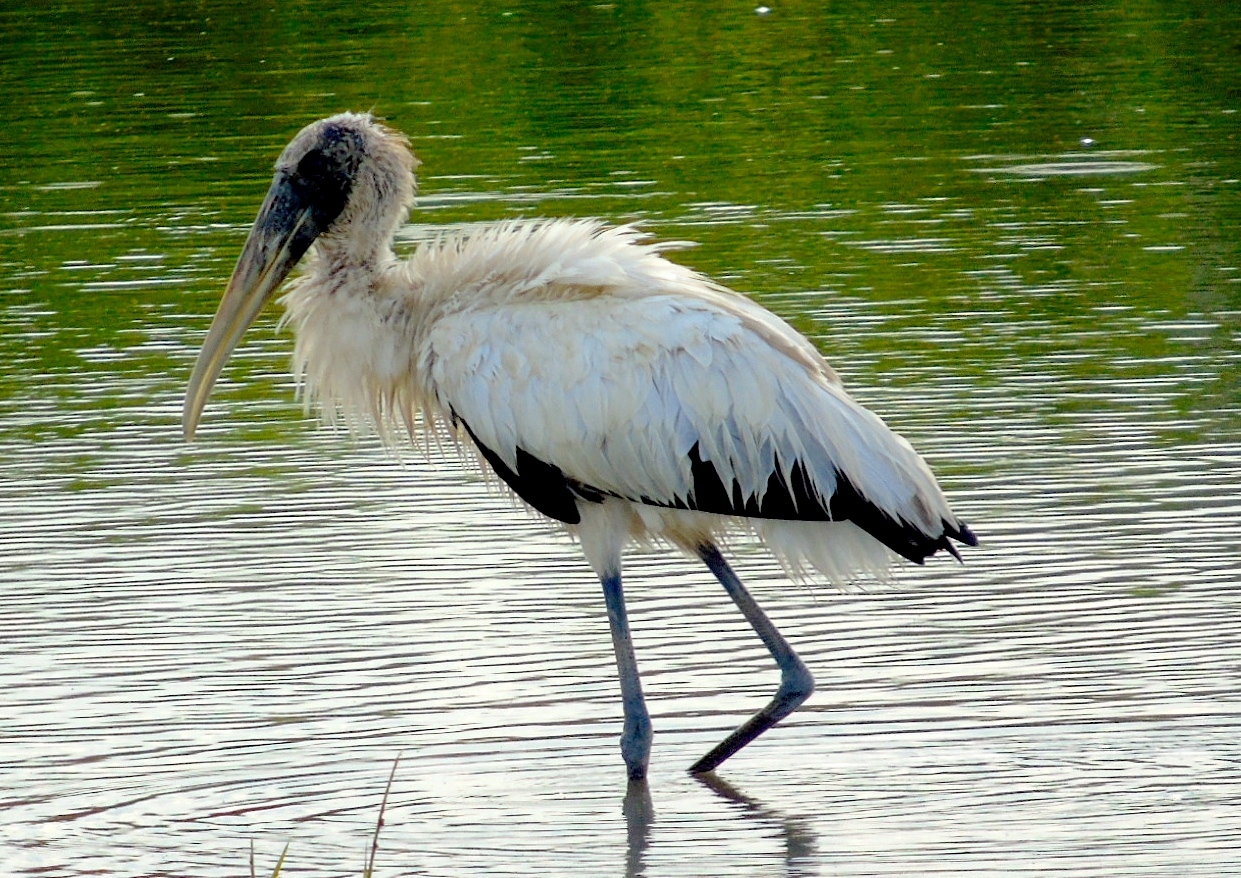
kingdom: Animalia
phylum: Chordata
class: Aves
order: Ciconiiformes
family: Ciconiidae
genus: Mycteria
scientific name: Mycteria americana
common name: Wood stork
